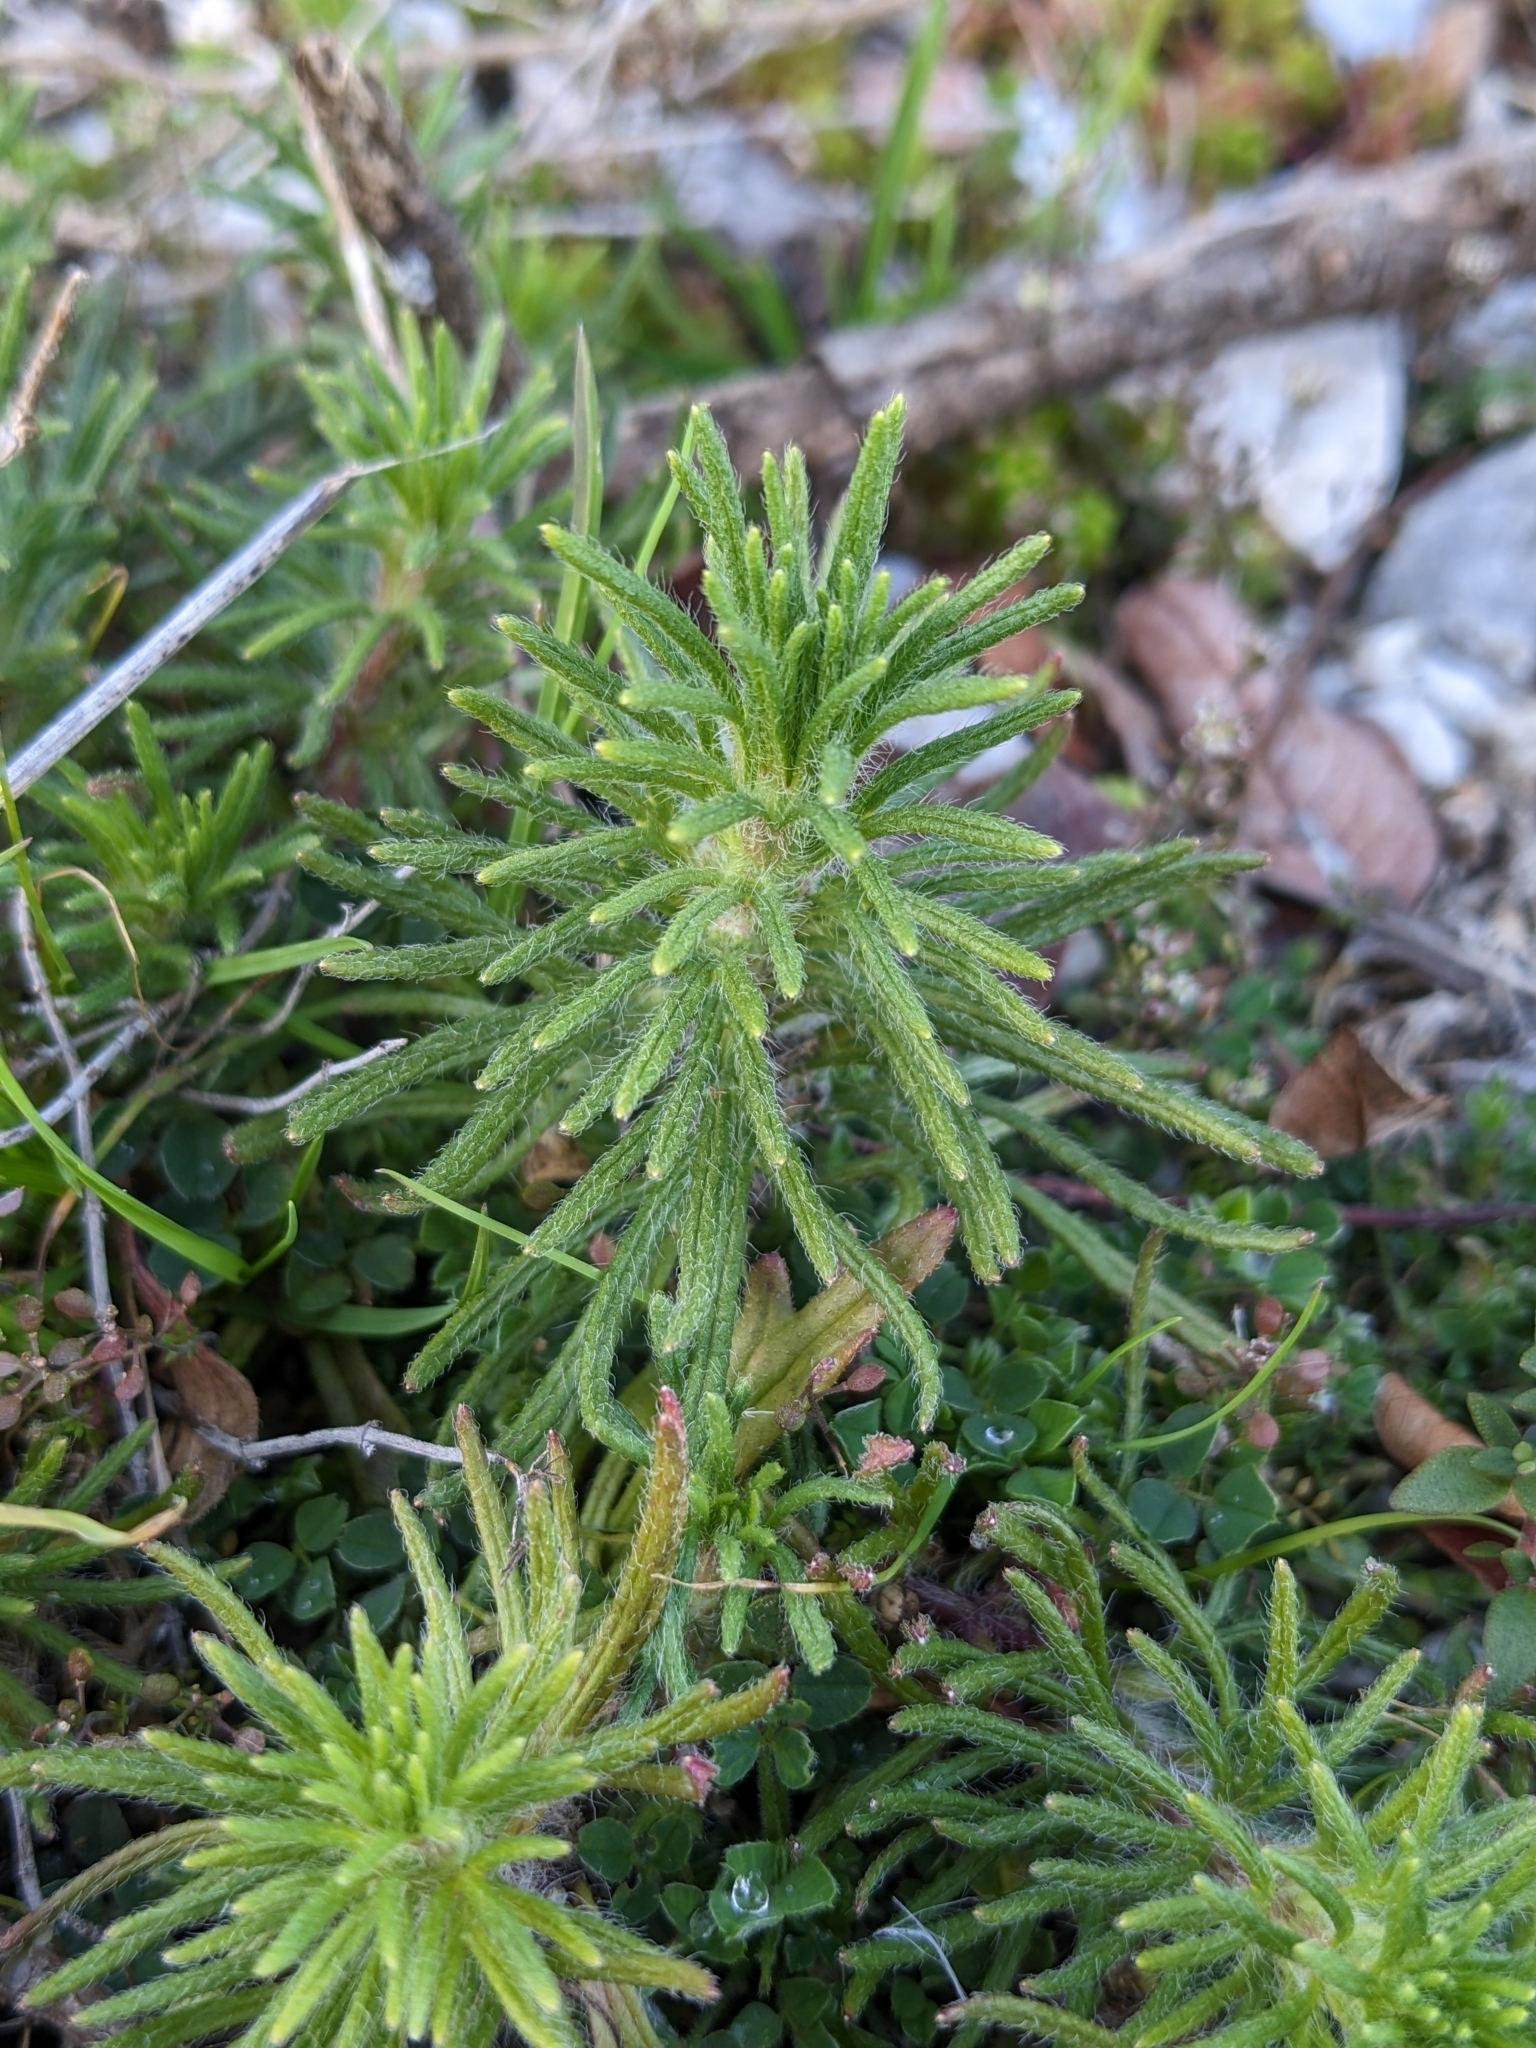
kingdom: Plantae
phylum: Tracheophyta
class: Magnoliopsida
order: Lamiales
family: Lamiaceae
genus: Ajuga
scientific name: Ajuga chamaepitys
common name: Ground-pine
